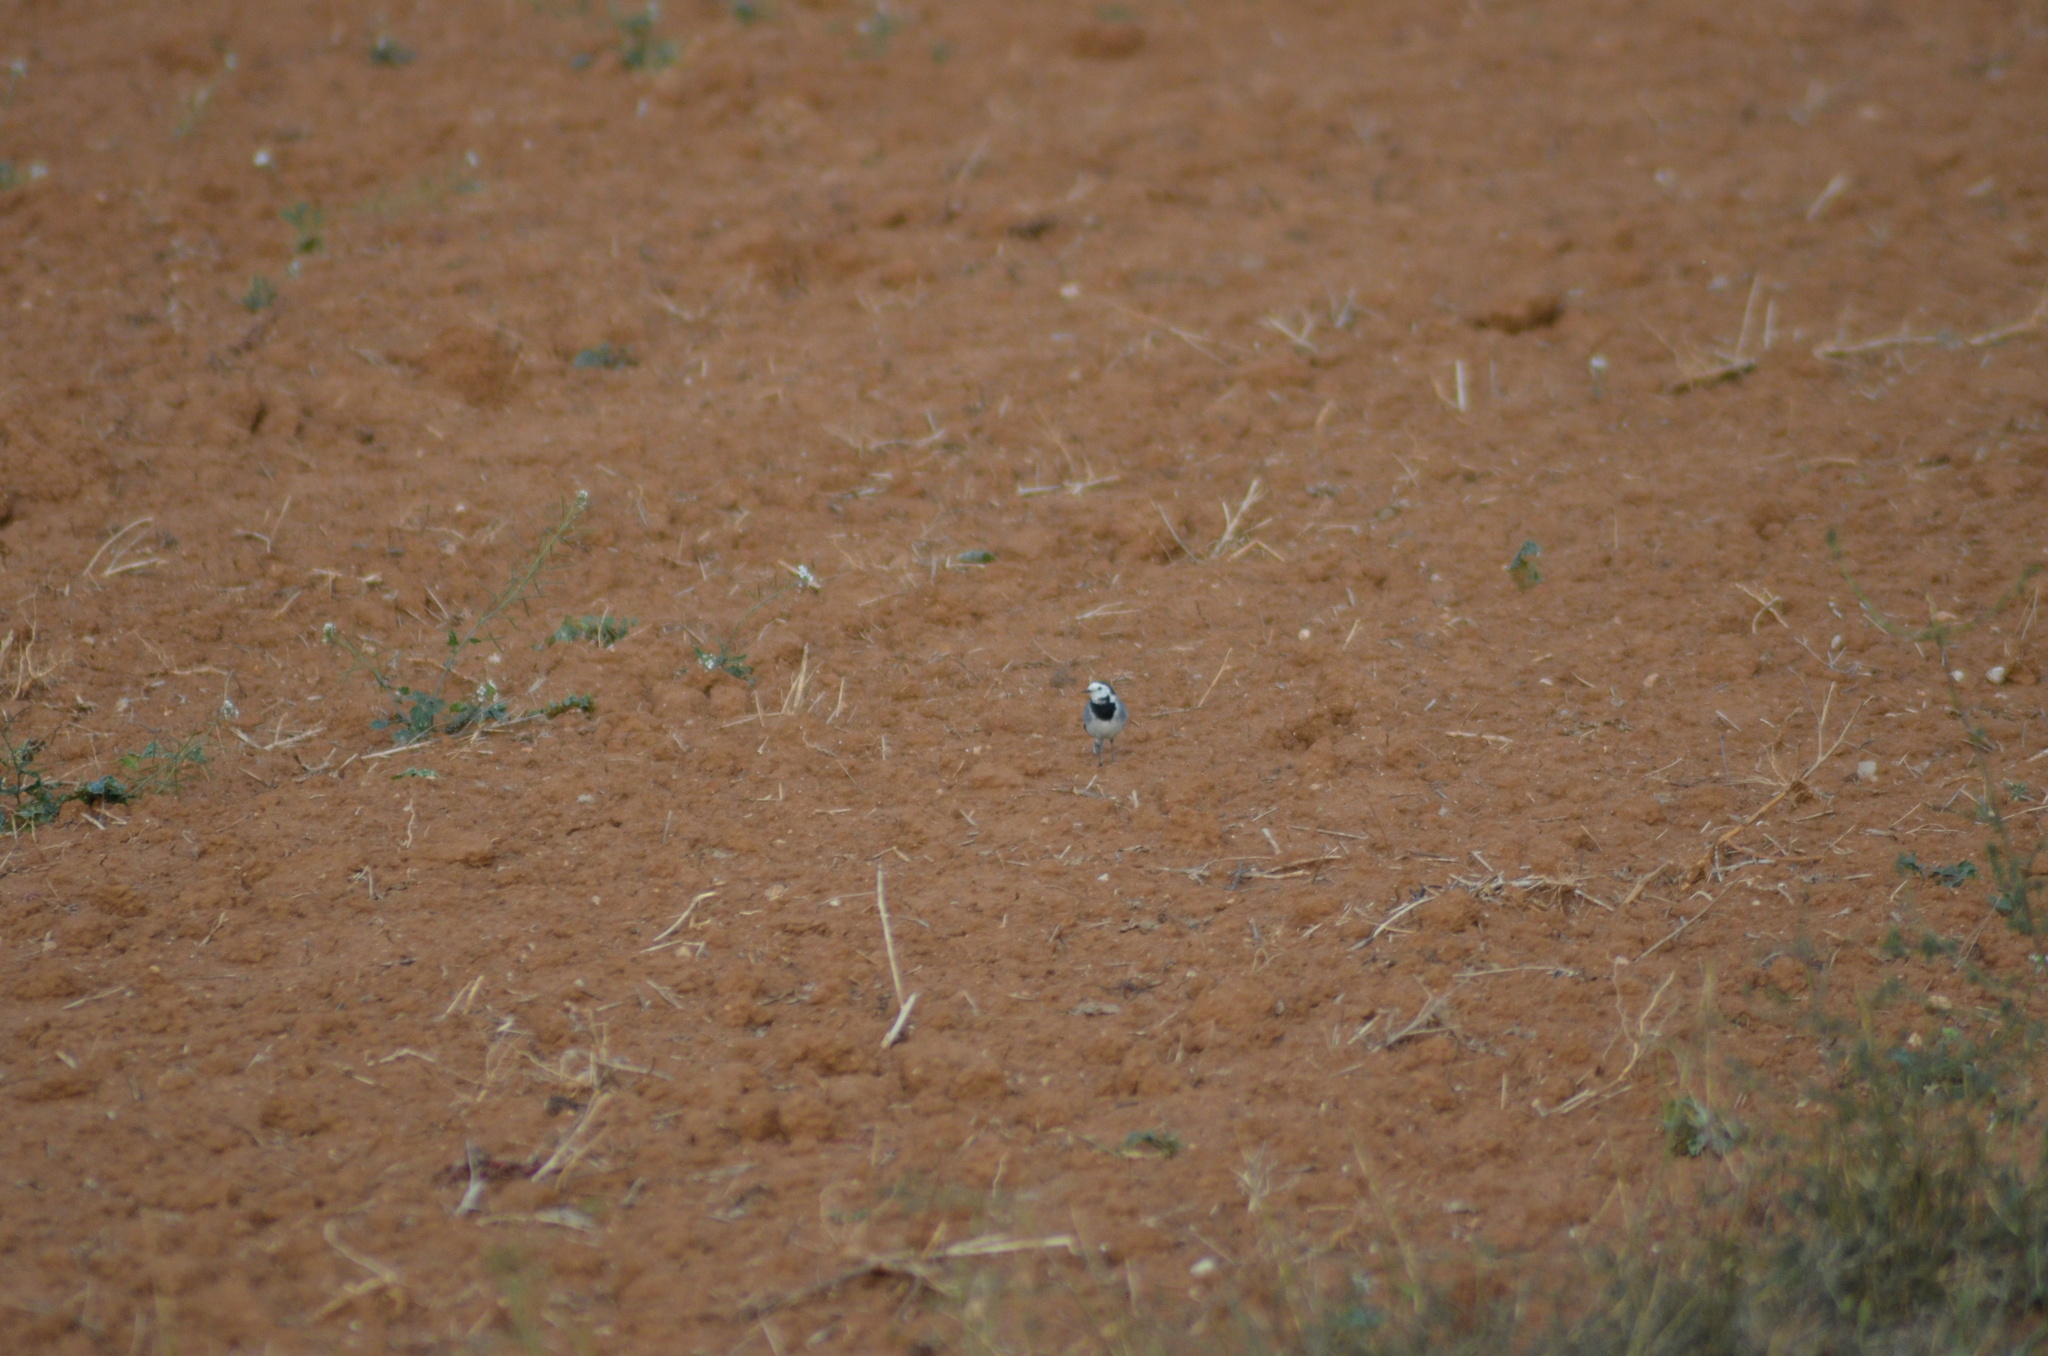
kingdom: Animalia
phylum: Chordata
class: Aves
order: Passeriformes
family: Motacillidae
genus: Motacilla
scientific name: Motacilla alba
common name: White wagtail
